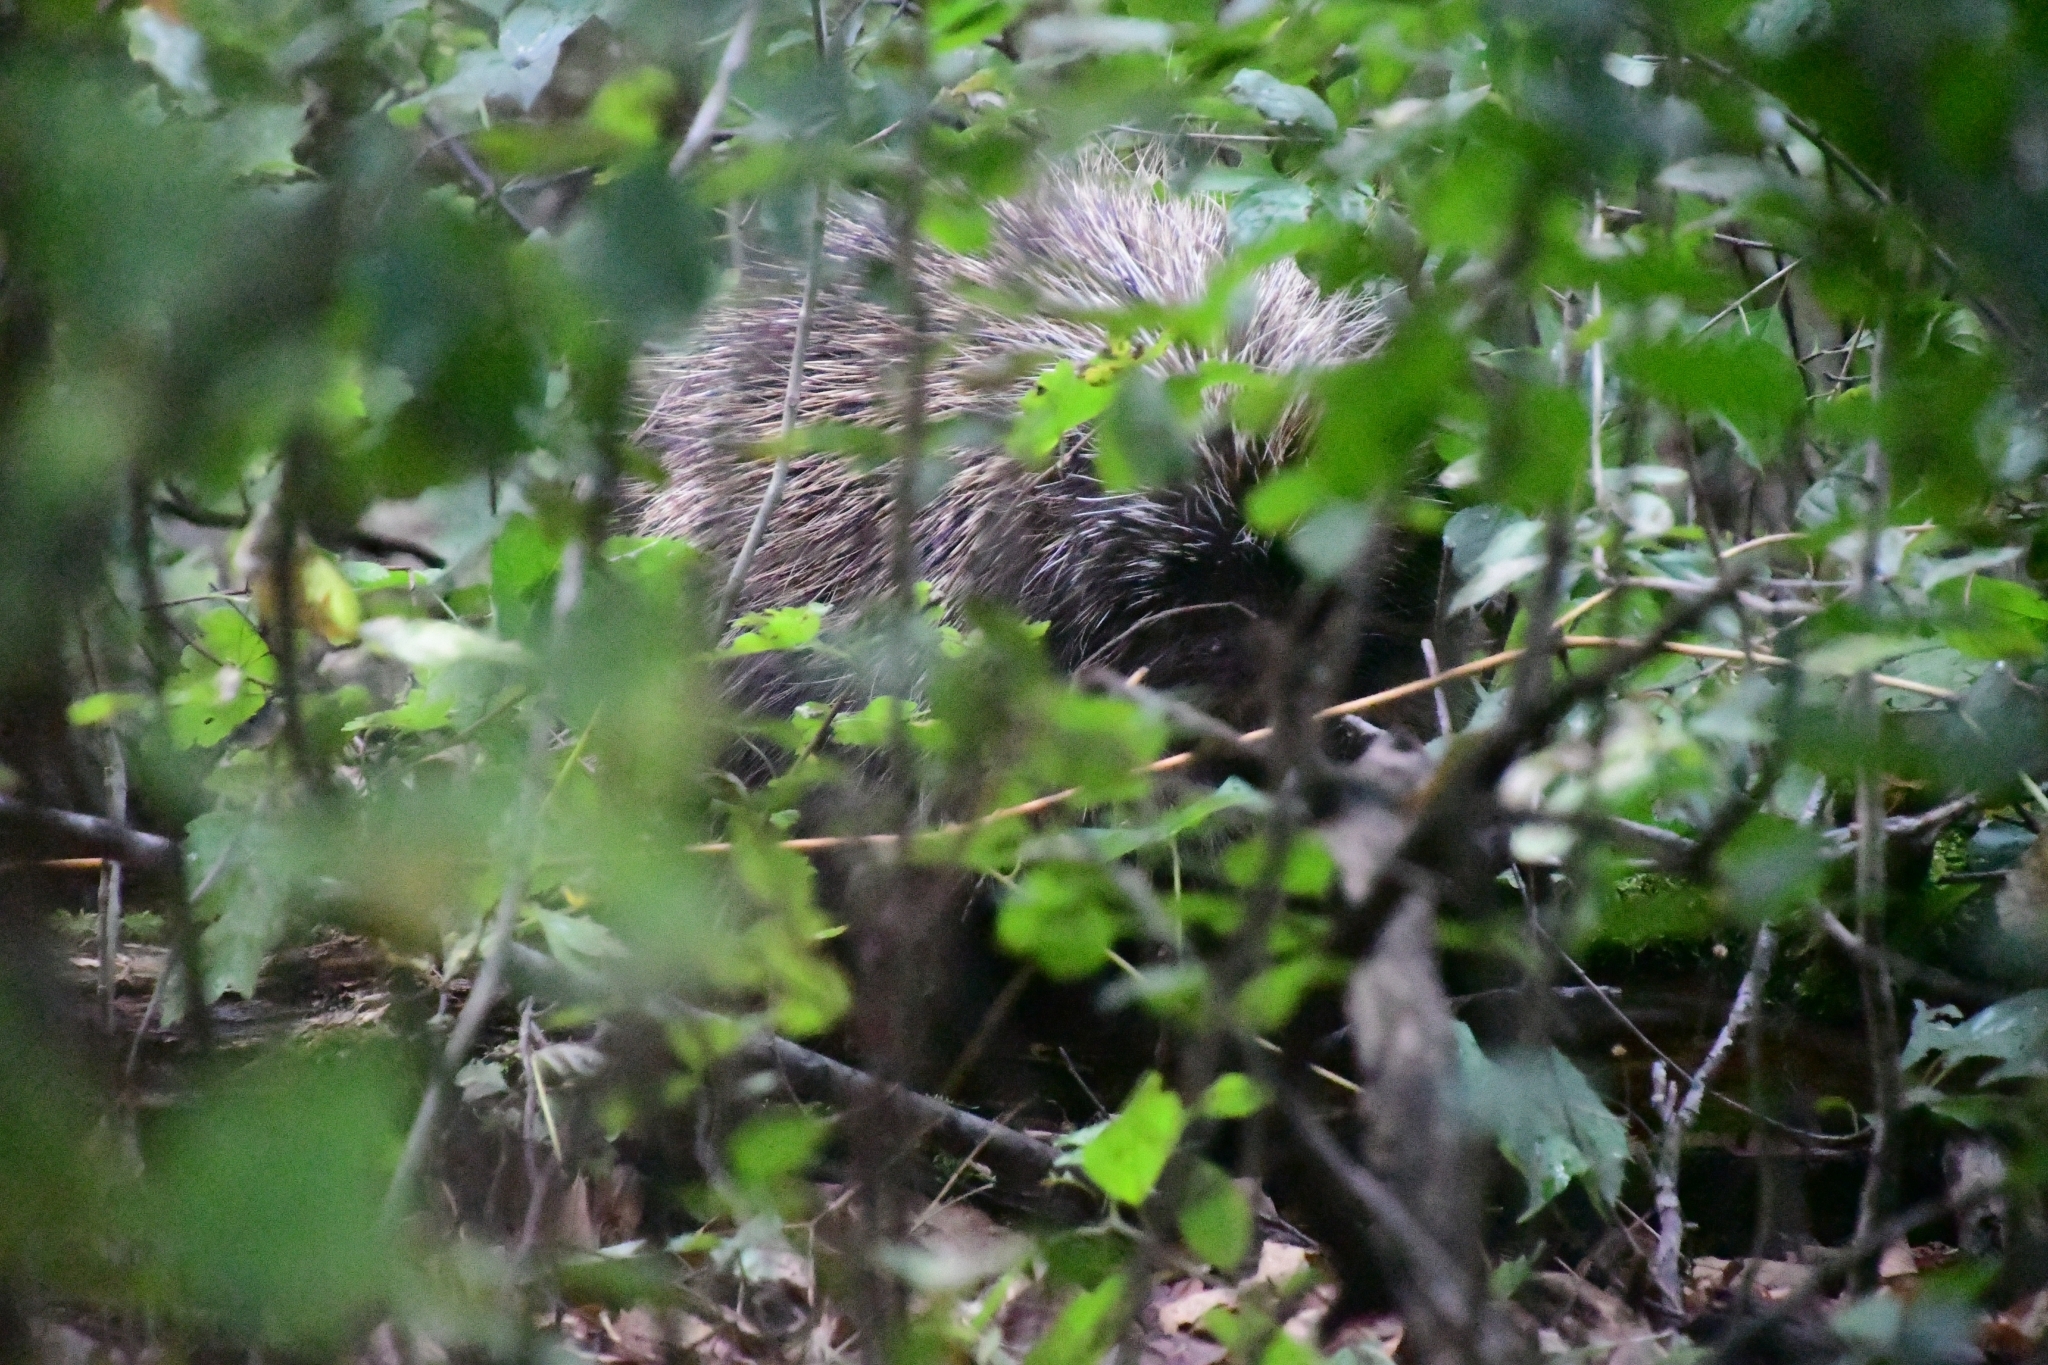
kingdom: Animalia
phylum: Chordata
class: Mammalia
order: Rodentia
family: Erethizontidae
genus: Erethizon
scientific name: Erethizon dorsatus
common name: North american porcupine
